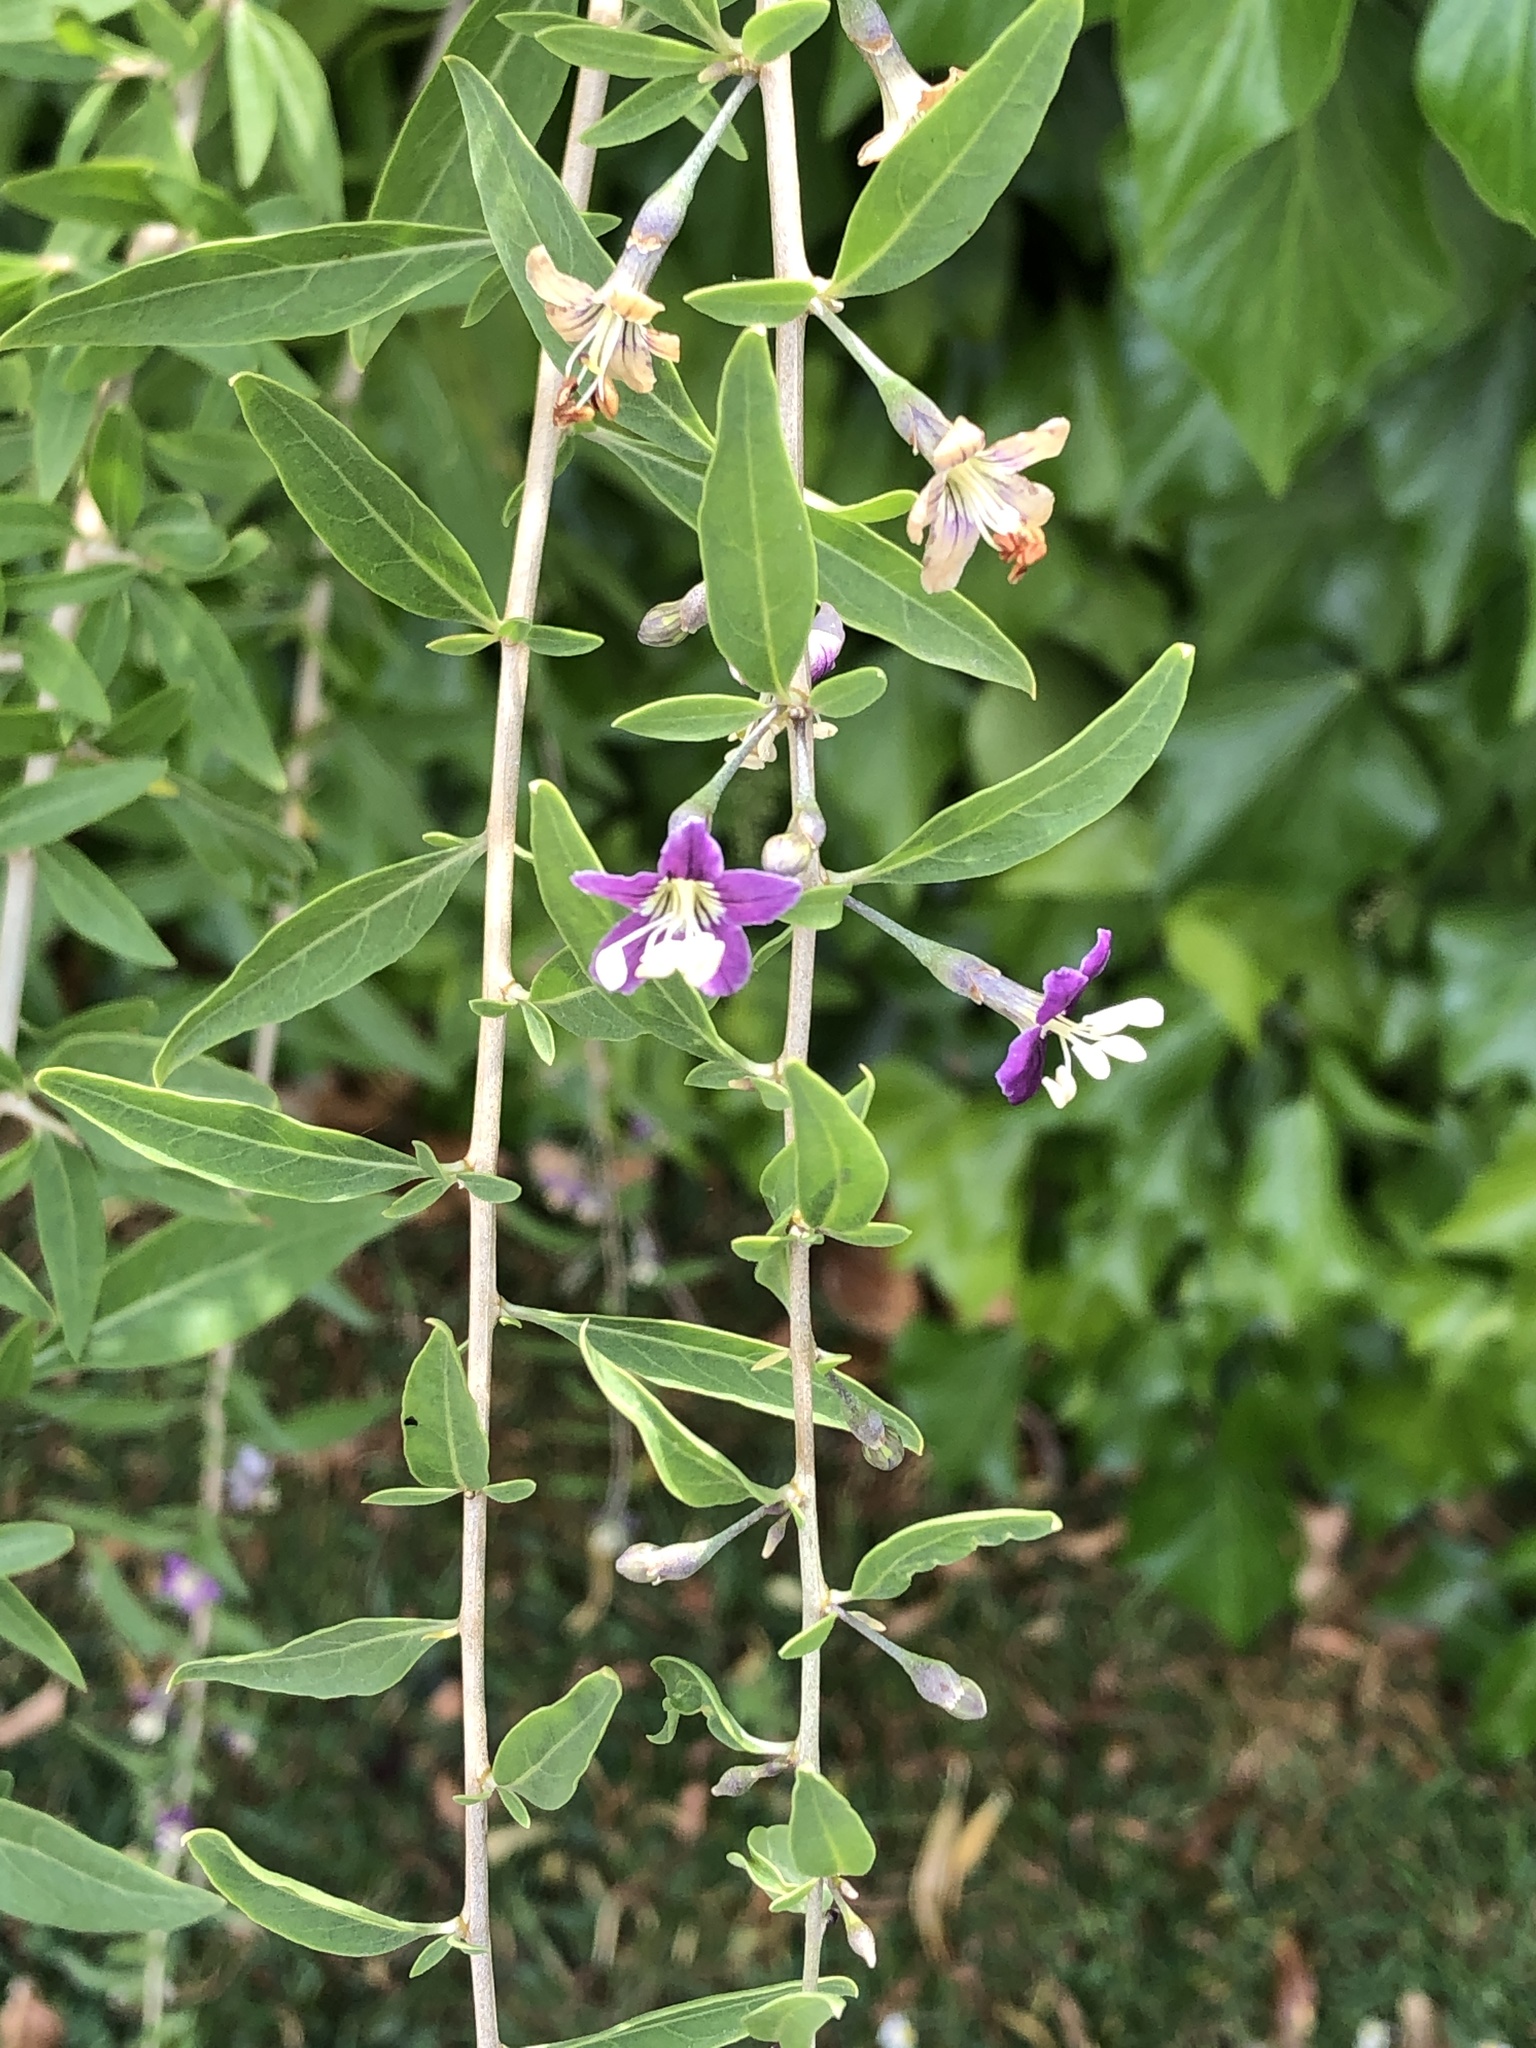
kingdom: Plantae
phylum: Tracheophyta
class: Magnoliopsida
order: Solanales
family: Solanaceae
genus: Lycium
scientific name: Lycium barbarum
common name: Duke of argyll's teaplant
